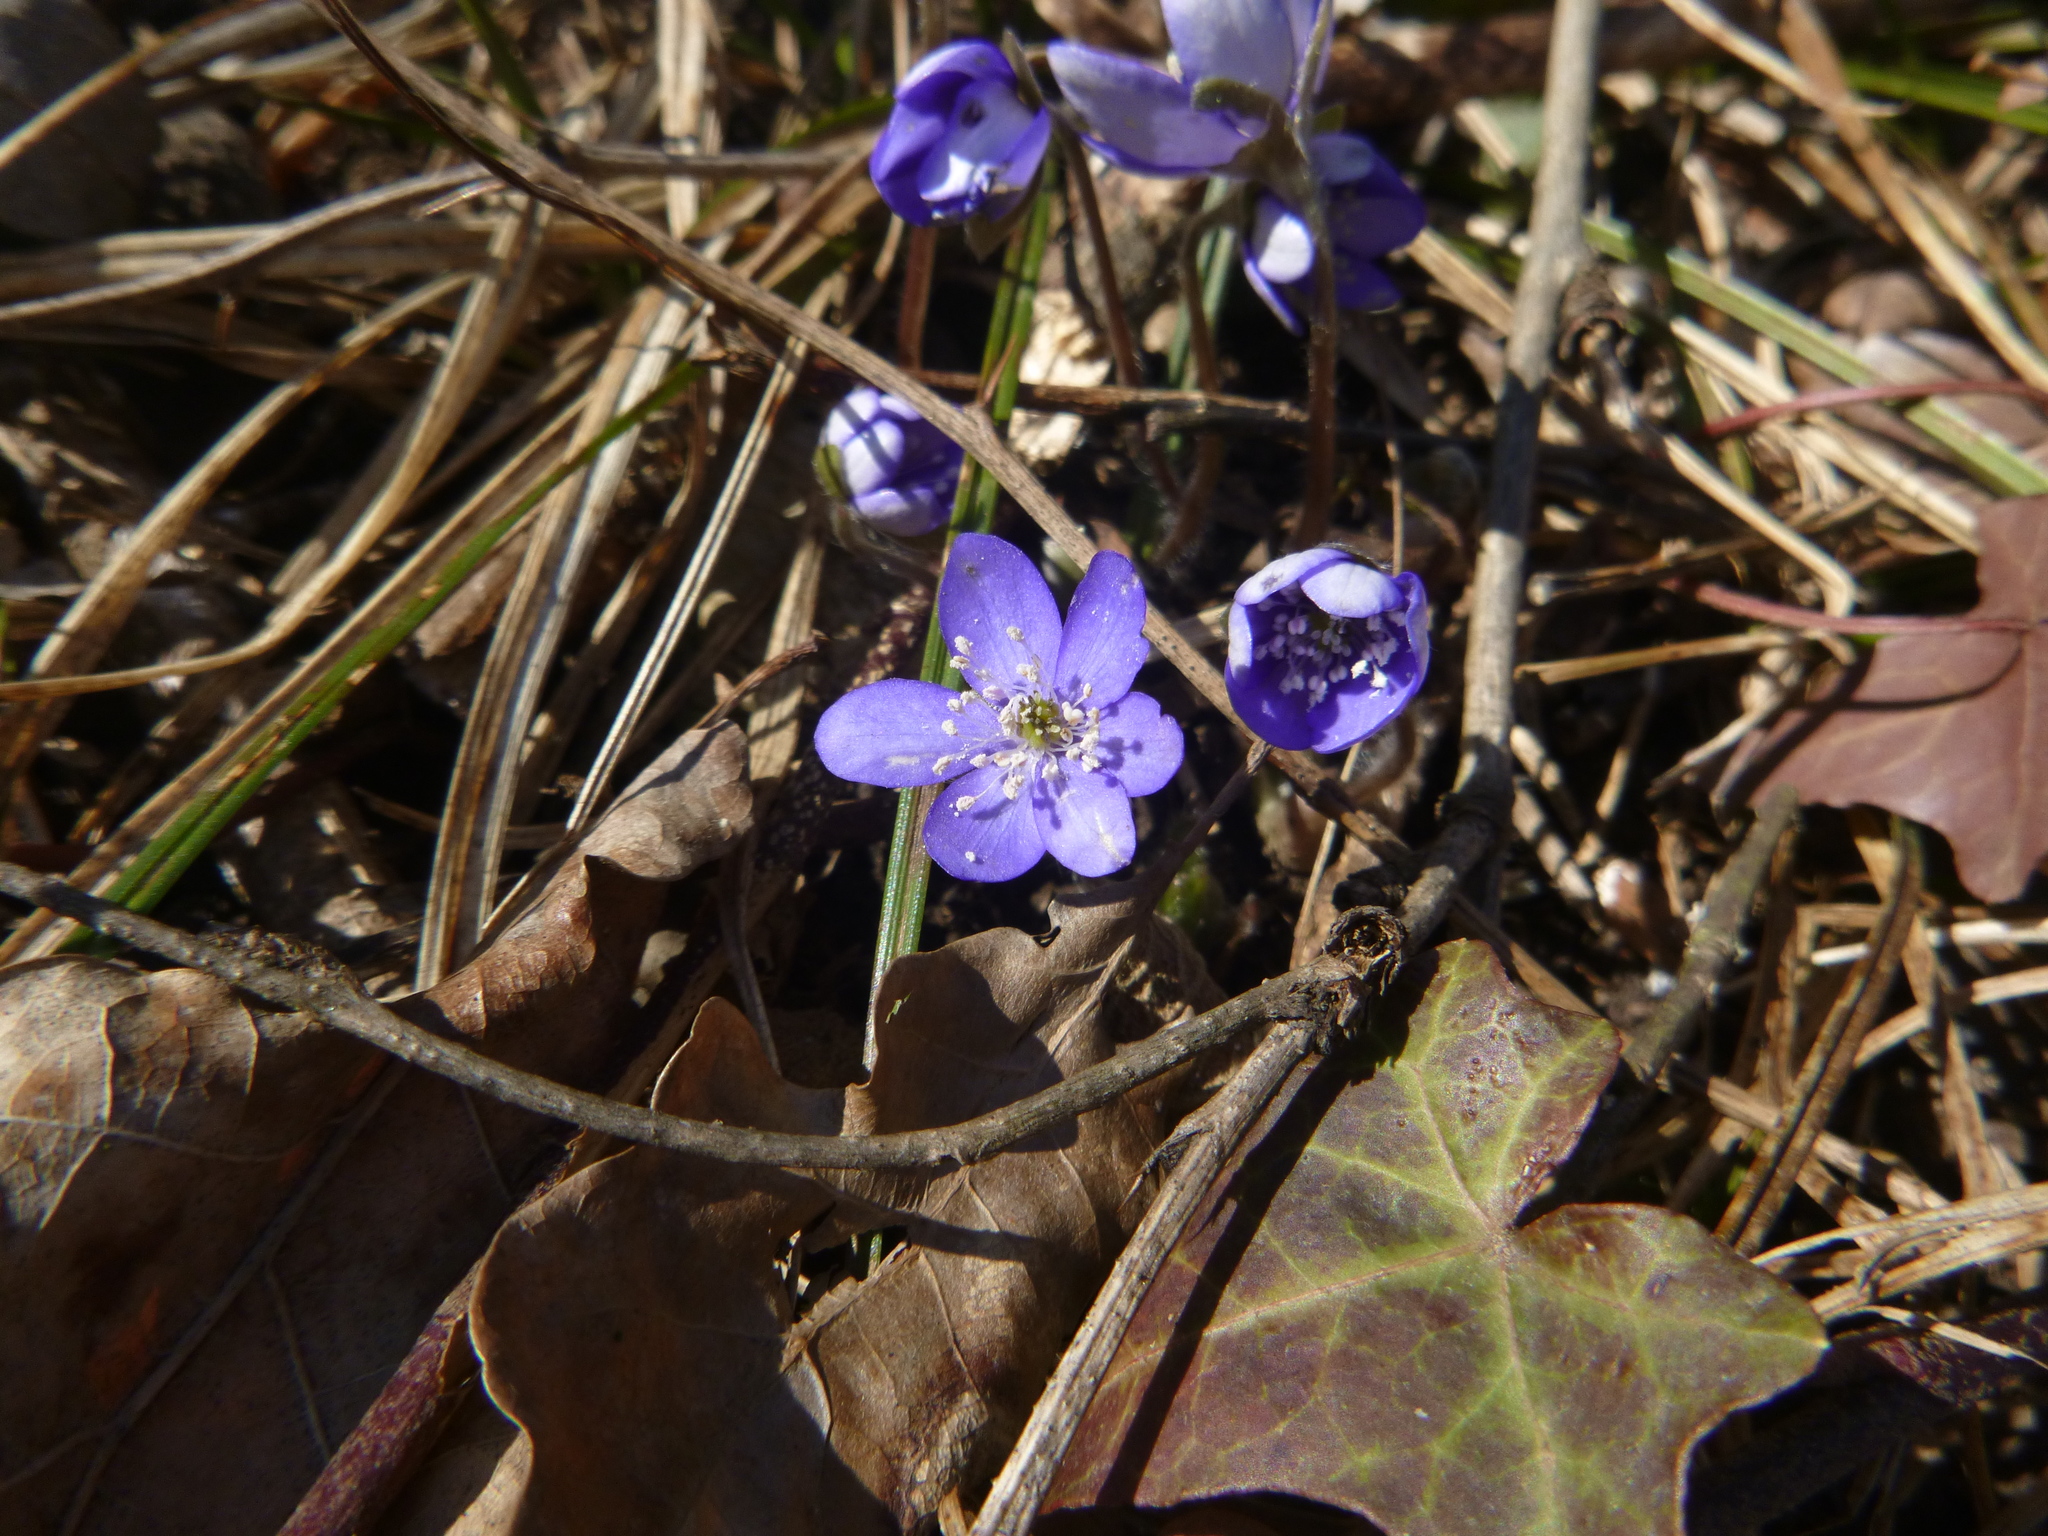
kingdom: Plantae
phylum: Tracheophyta
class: Magnoliopsida
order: Ranunculales
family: Ranunculaceae
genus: Hepatica
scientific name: Hepatica nobilis
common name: Liverleaf
